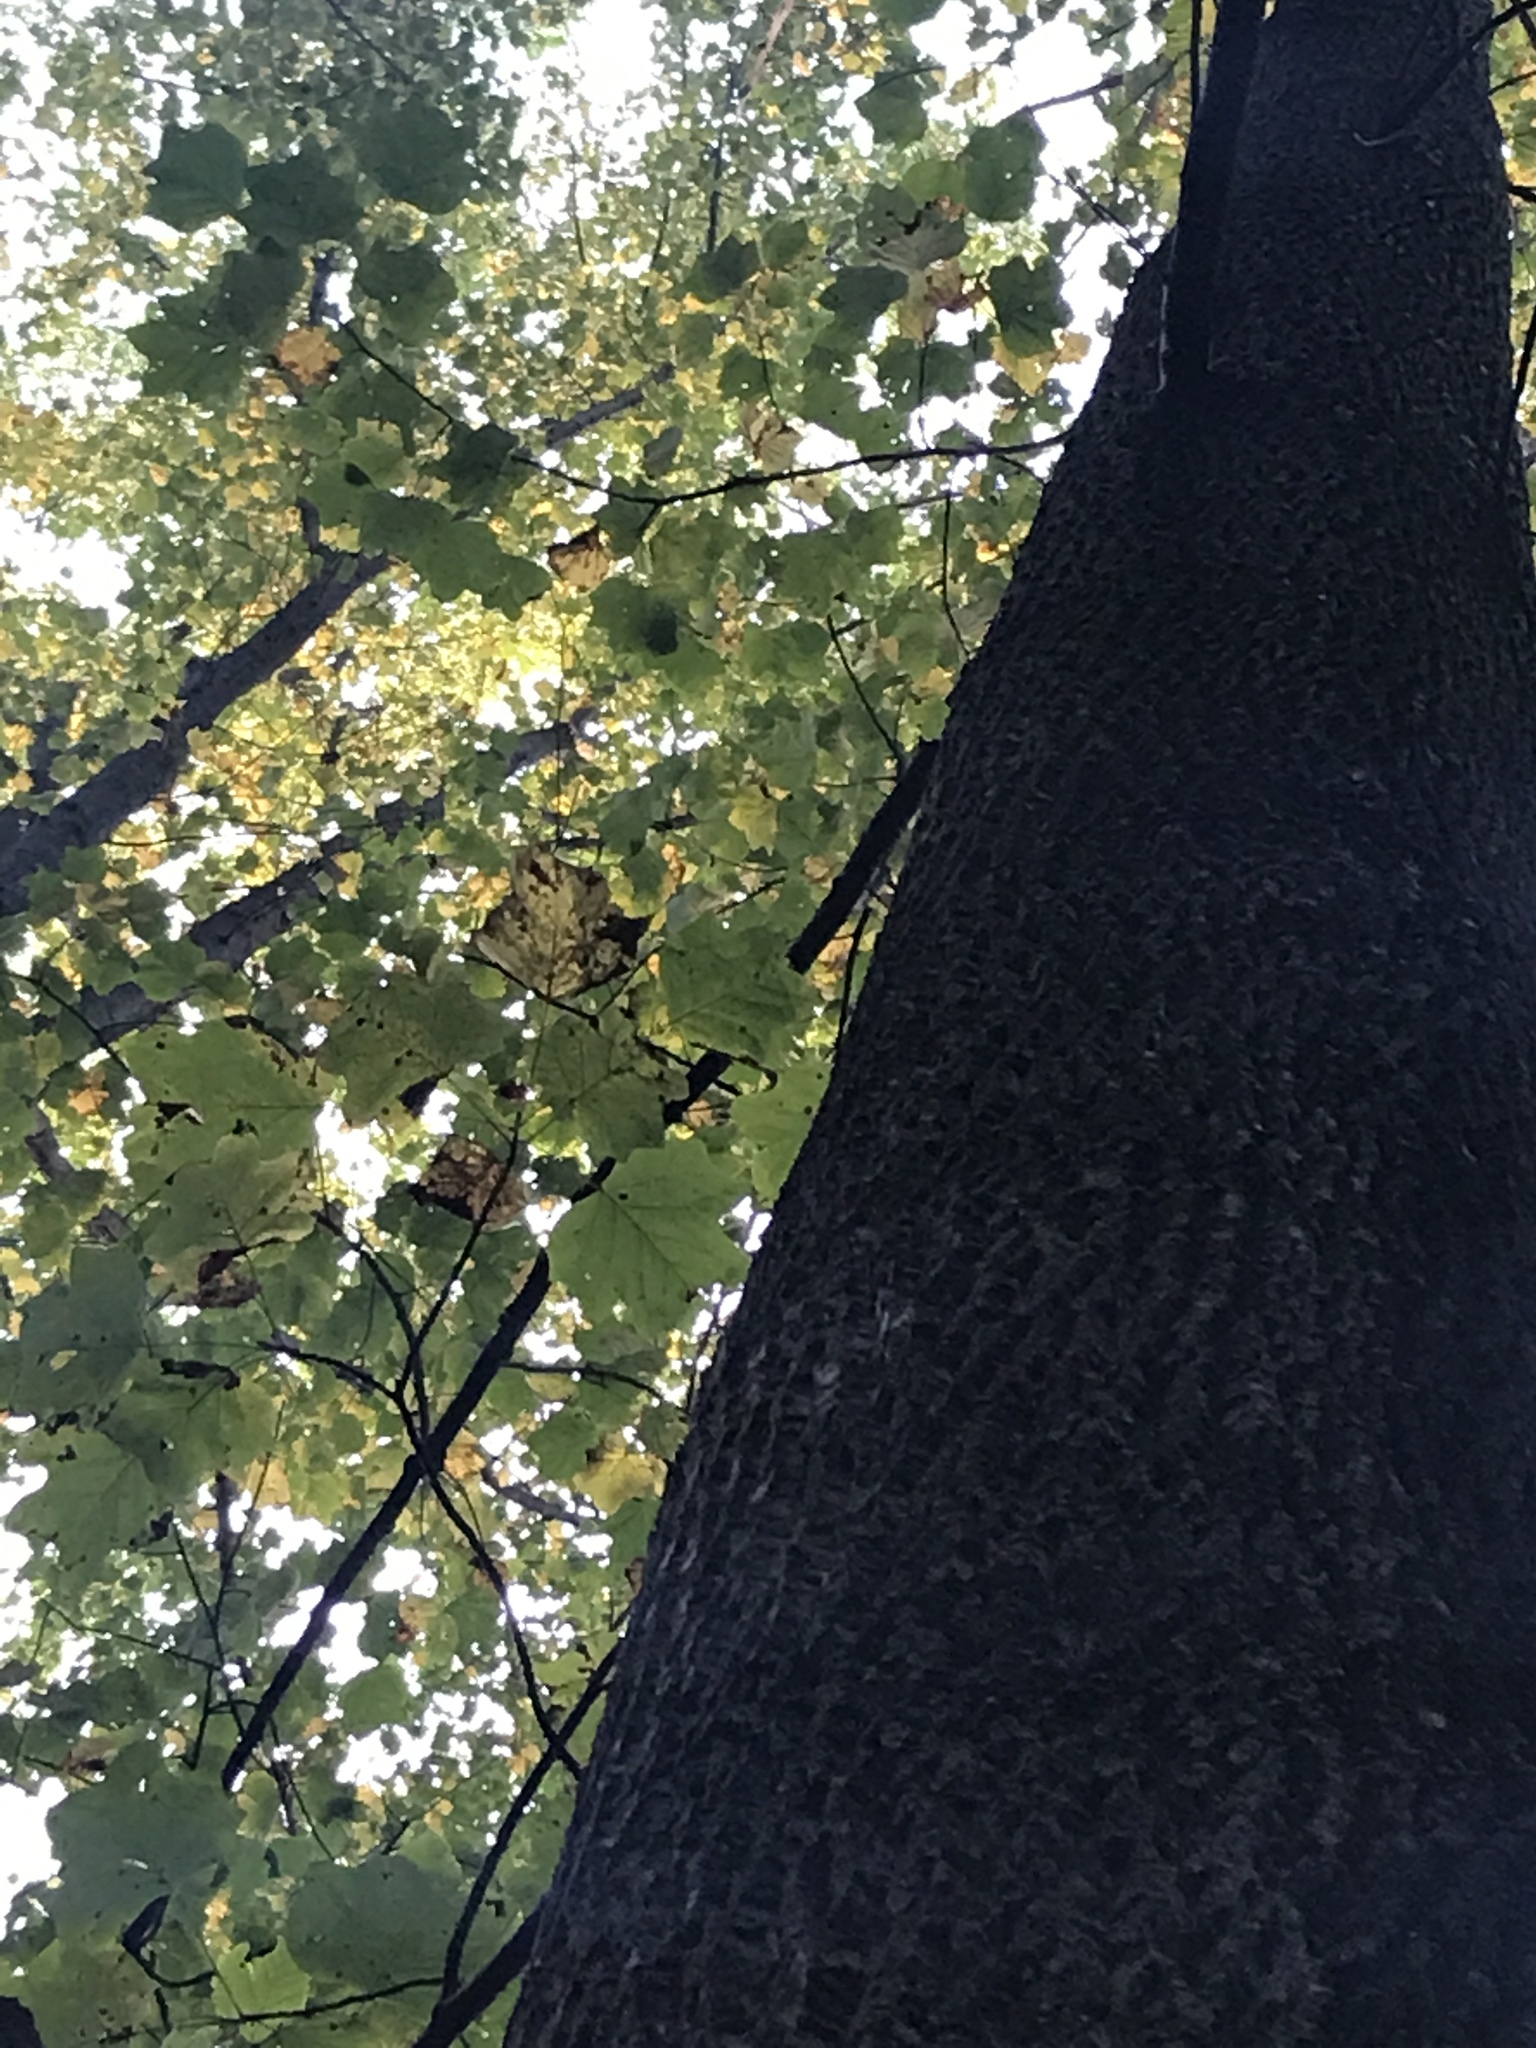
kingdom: Plantae
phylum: Tracheophyta
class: Magnoliopsida
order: Magnoliales
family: Magnoliaceae
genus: Liriodendron
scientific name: Liriodendron tulipifera
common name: Tulip tree
